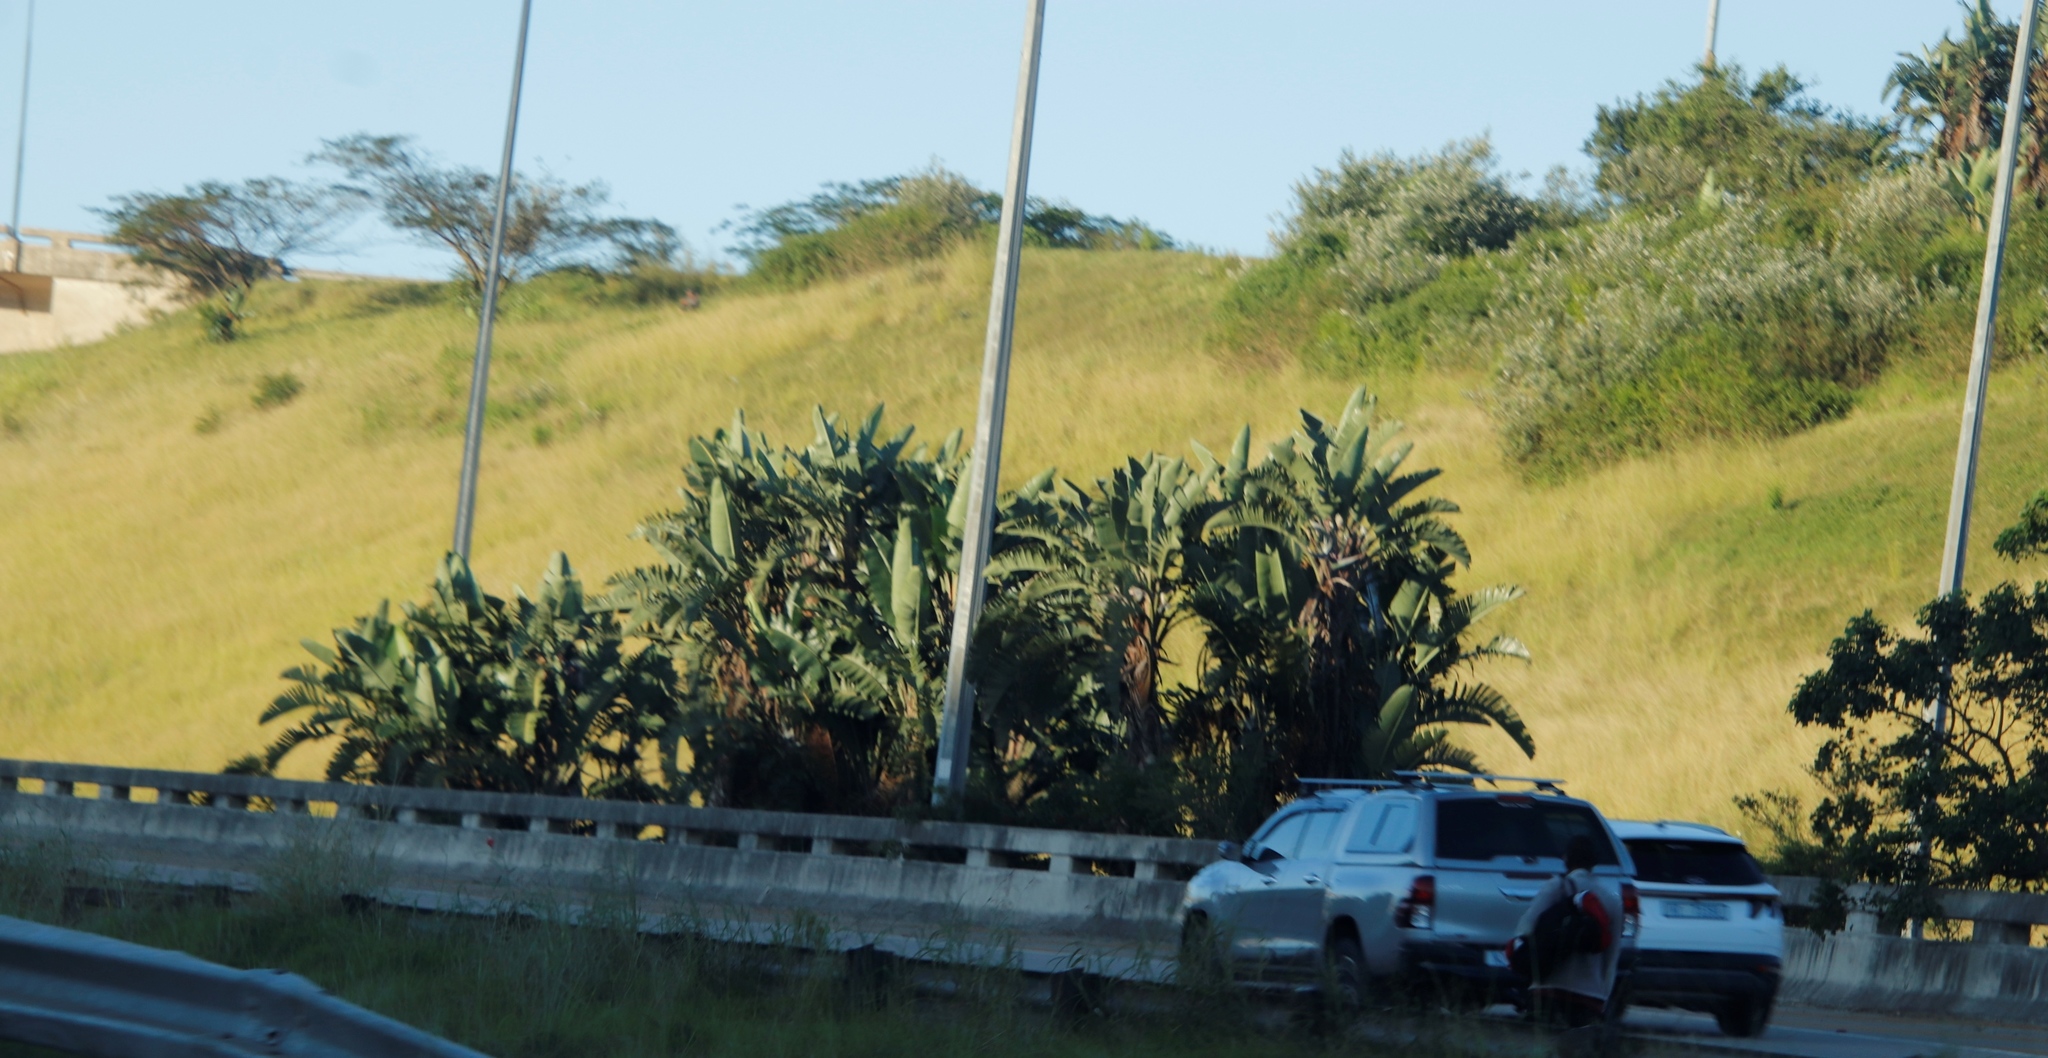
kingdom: Plantae
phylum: Tracheophyta
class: Liliopsida
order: Zingiberales
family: Strelitziaceae
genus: Strelitzia
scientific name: Strelitzia nicolai
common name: Bird-of-paradise tree
